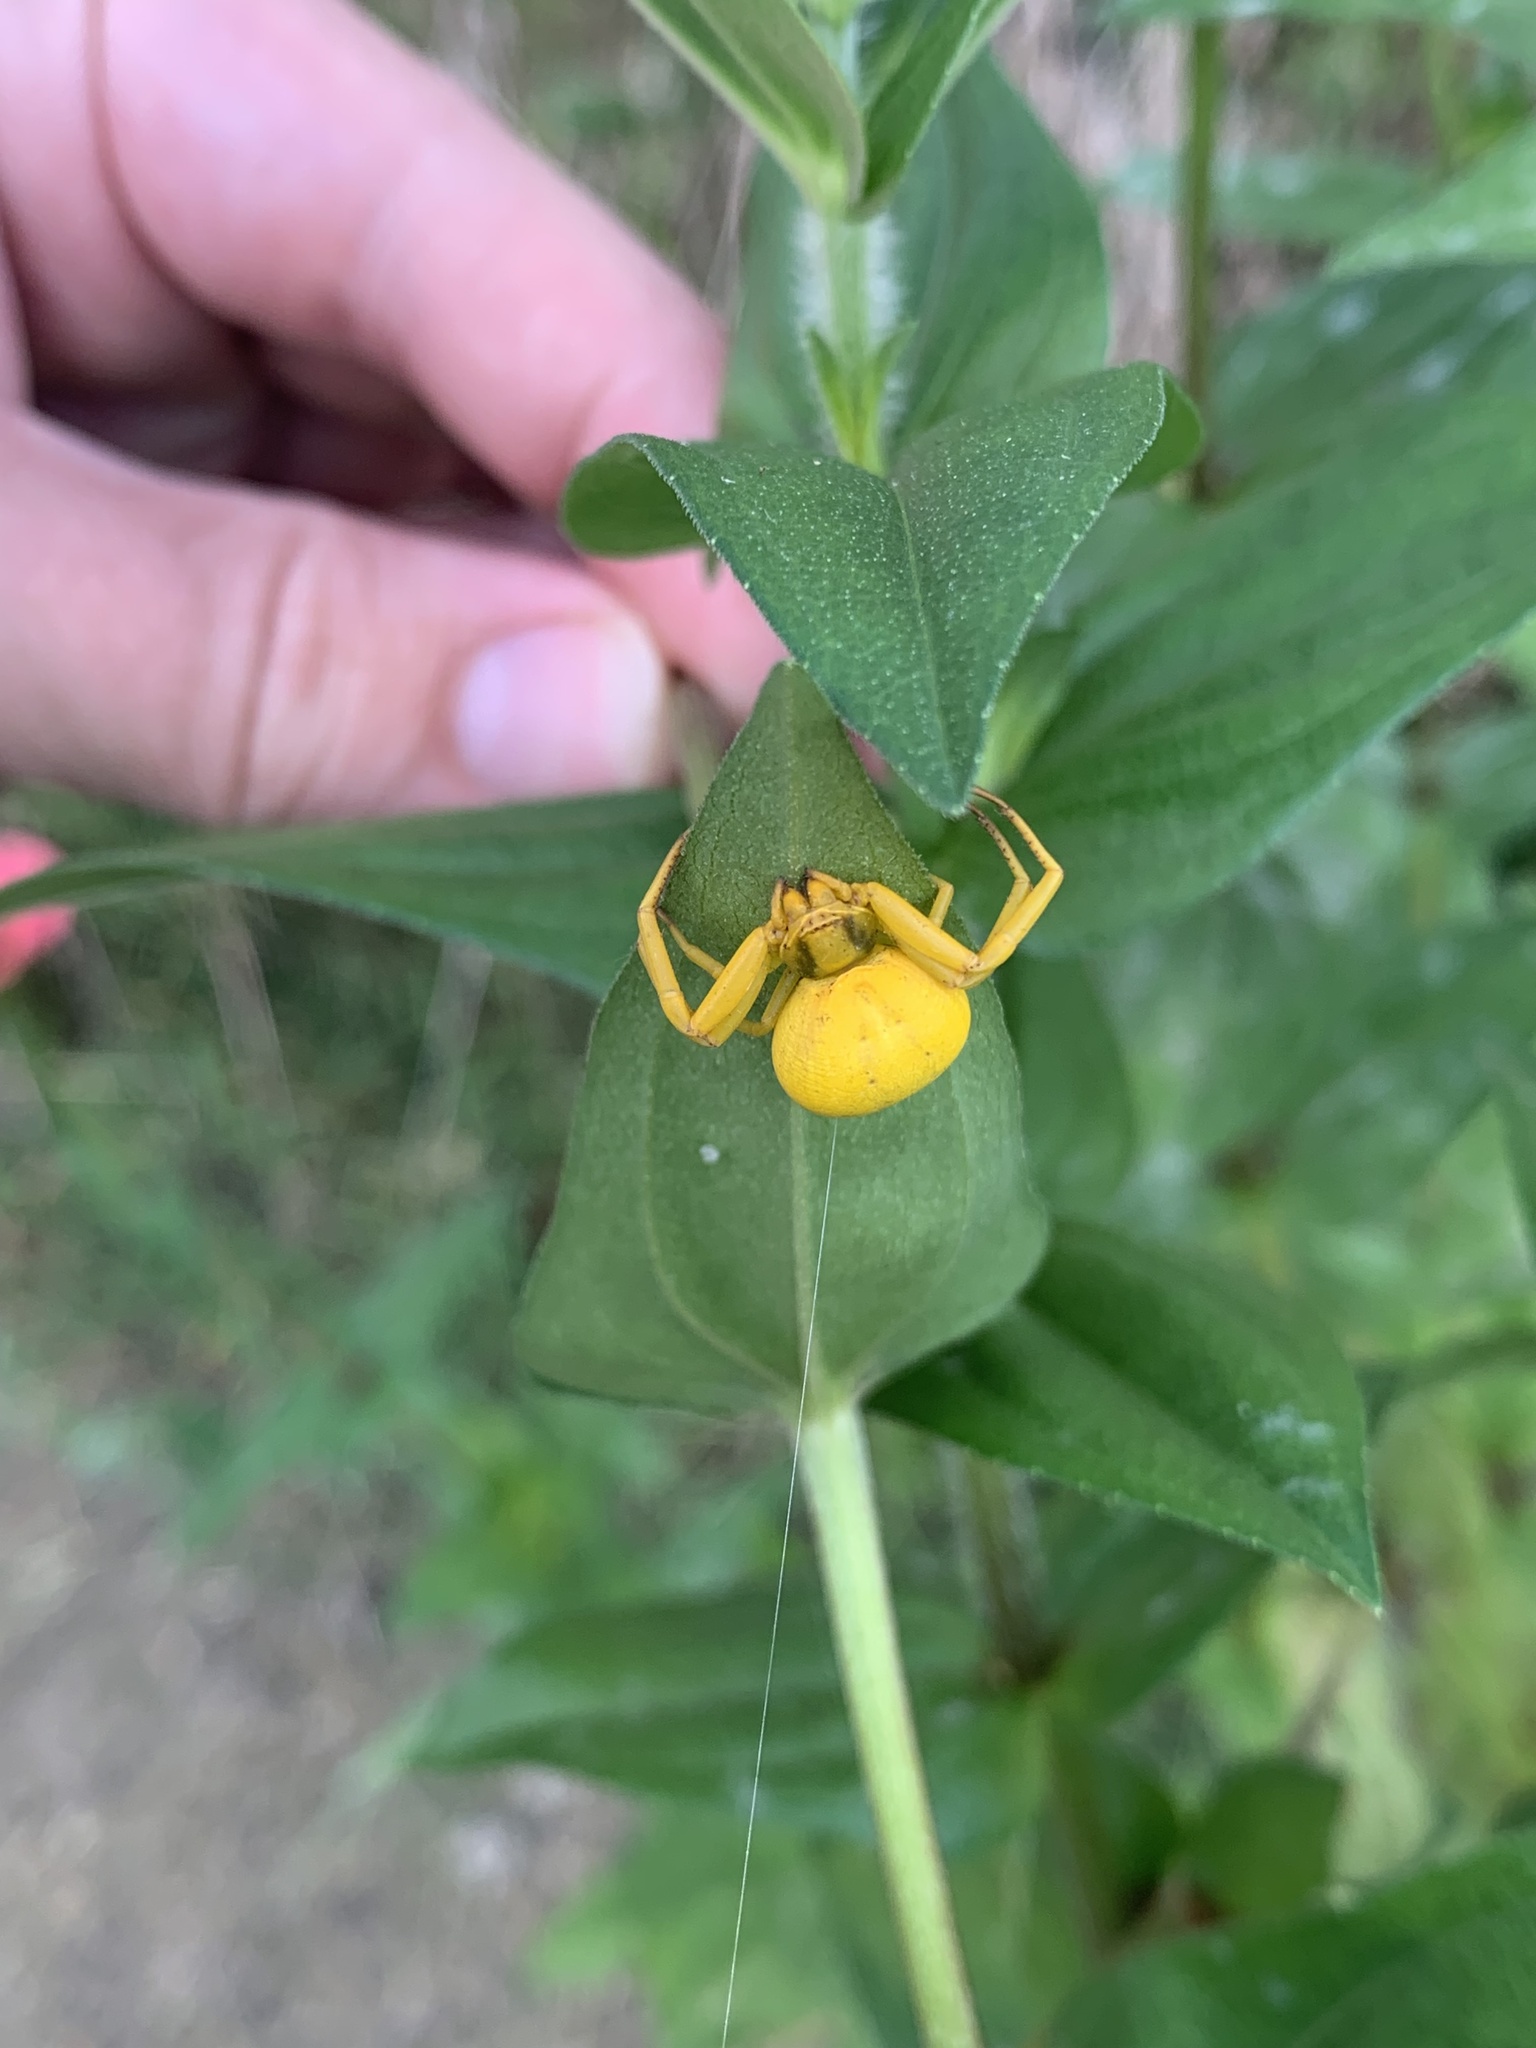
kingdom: Animalia
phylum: Arthropoda
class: Arachnida
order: Araneae
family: Thomisidae
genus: Misumenoides
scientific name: Misumenoides formosipes
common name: White-banded crab spider
